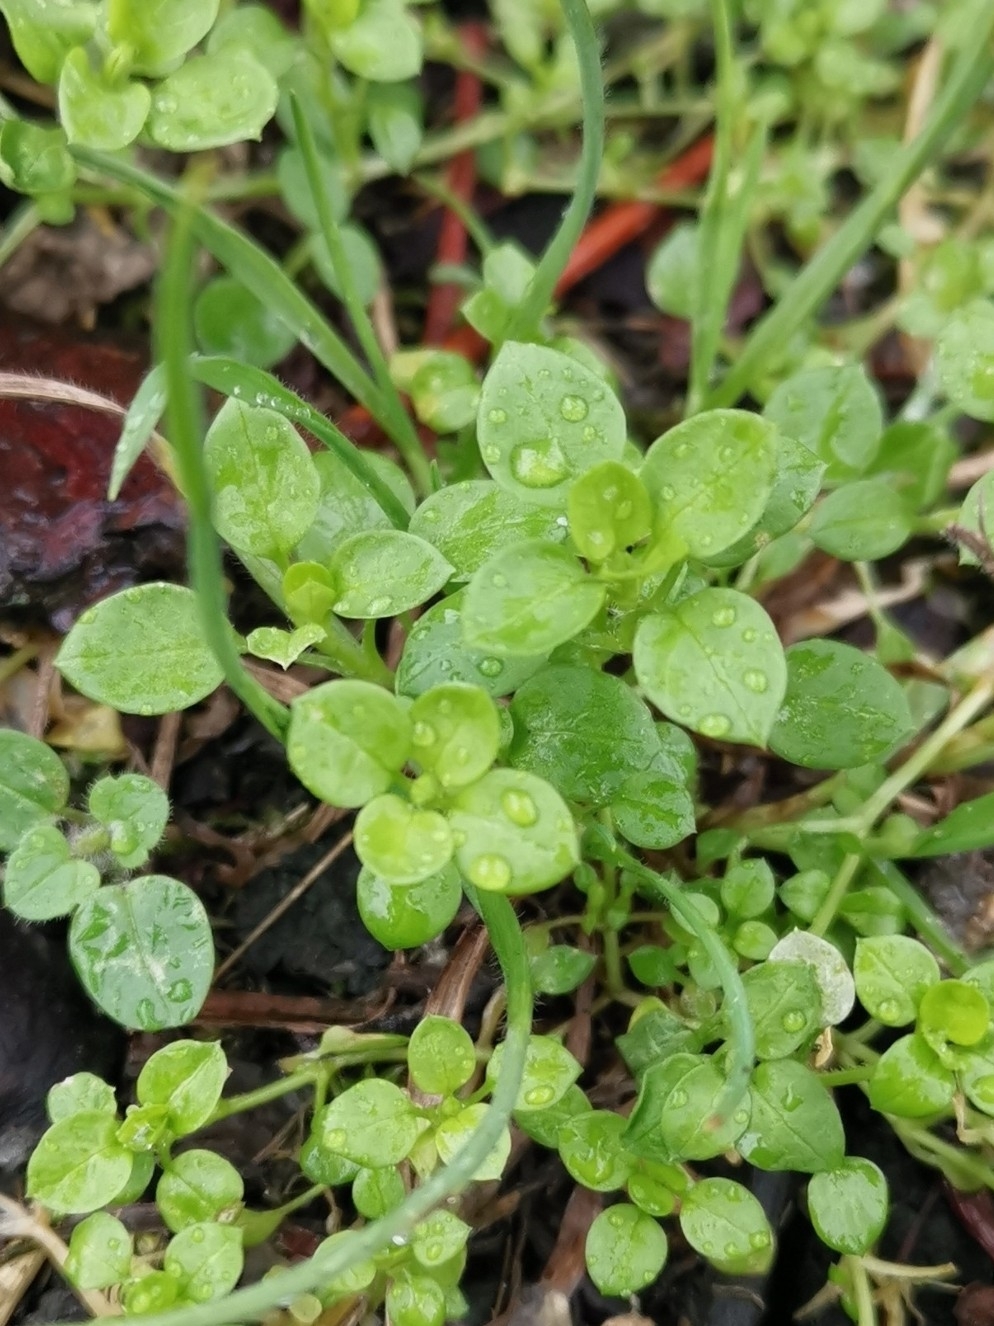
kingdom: Plantae
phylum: Tracheophyta
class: Magnoliopsida
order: Caryophyllales
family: Caryophyllaceae
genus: Stellaria
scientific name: Stellaria media
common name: Common chickweed
